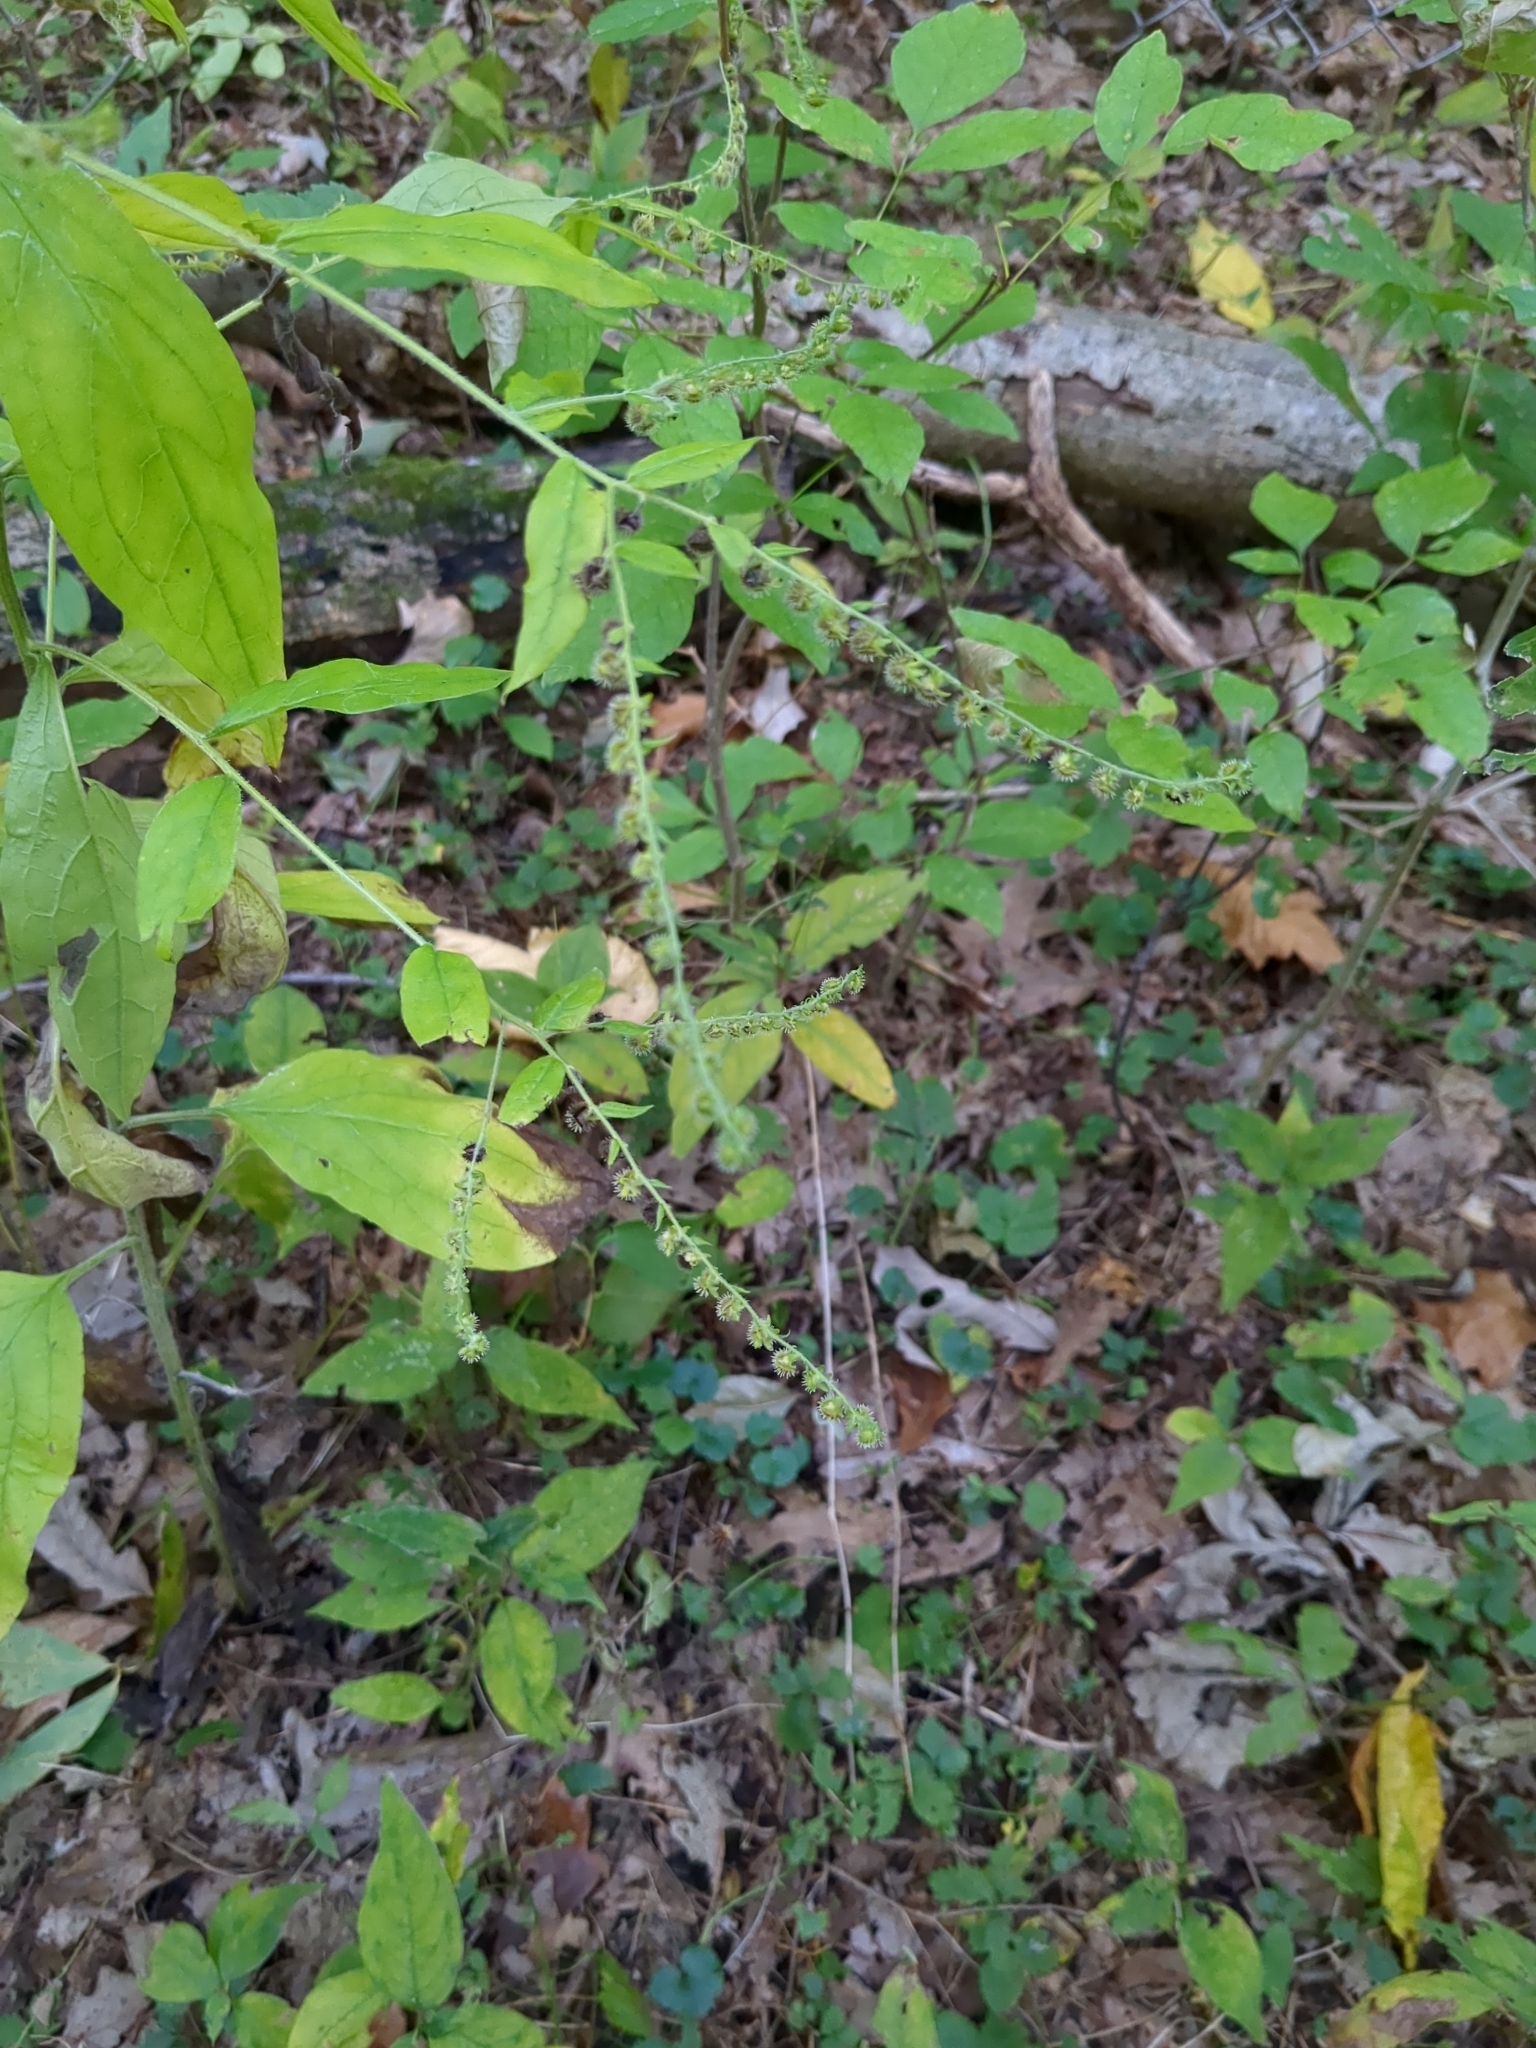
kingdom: Plantae
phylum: Tracheophyta
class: Magnoliopsida
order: Boraginales
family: Boraginaceae
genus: Hackelia
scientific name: Hackelia virginiana
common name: Beggar's-lice
